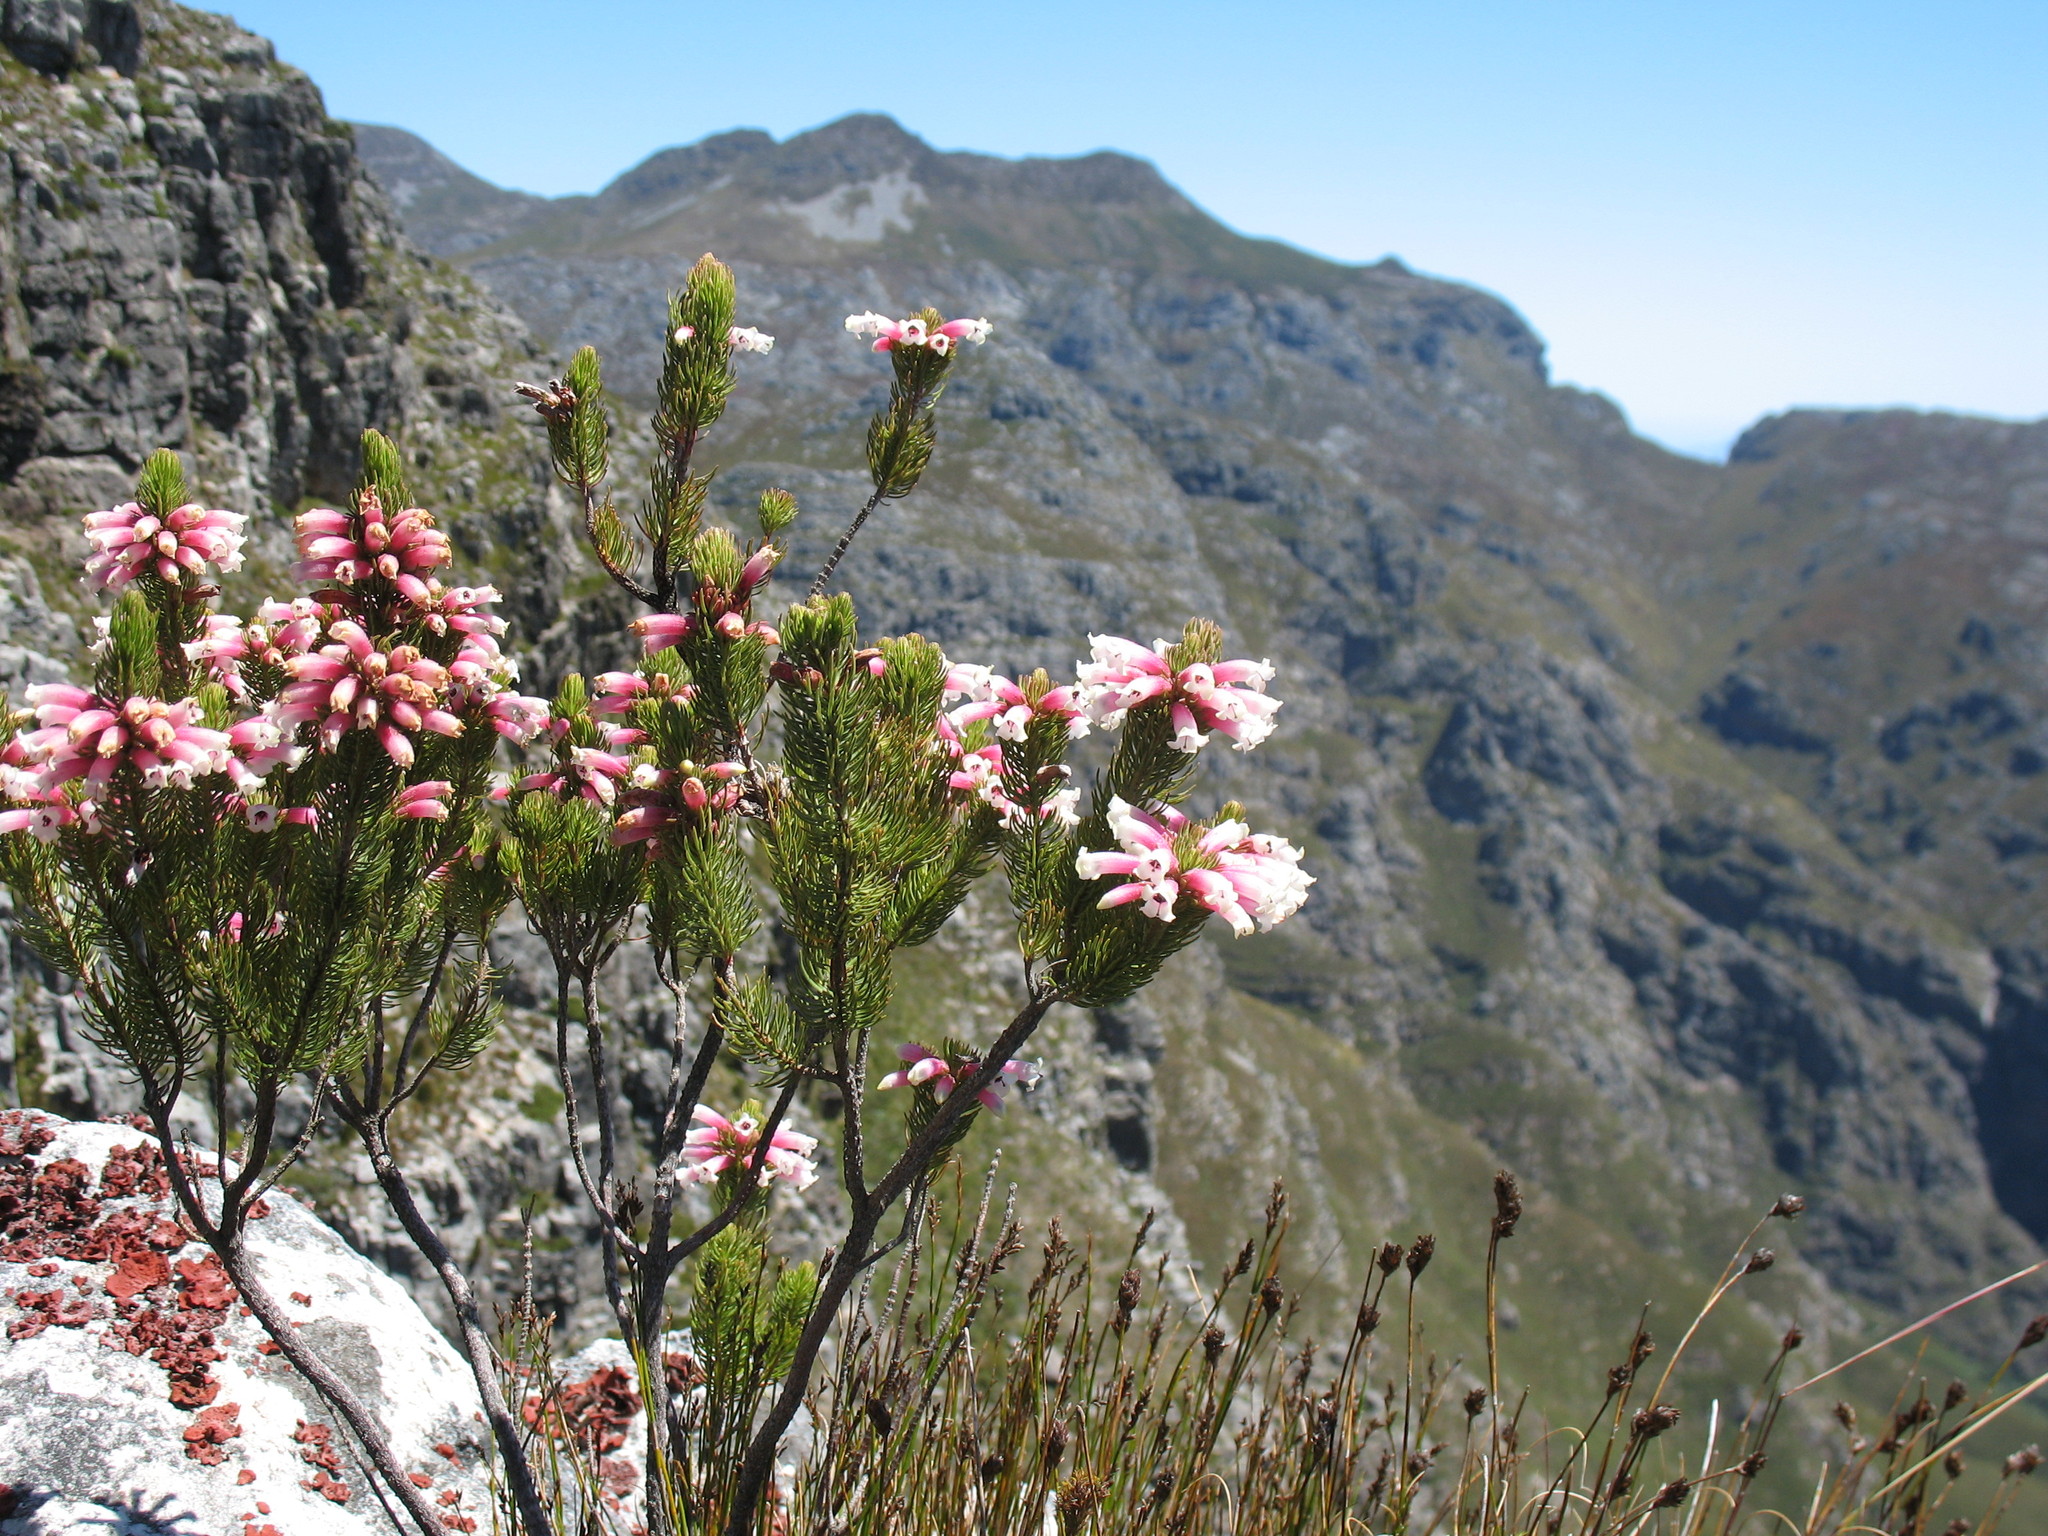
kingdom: Plantae
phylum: Tracheophyta
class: Magnoliopsida
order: Ericales
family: Ericaceae
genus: Erica
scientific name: Erica viscaria
